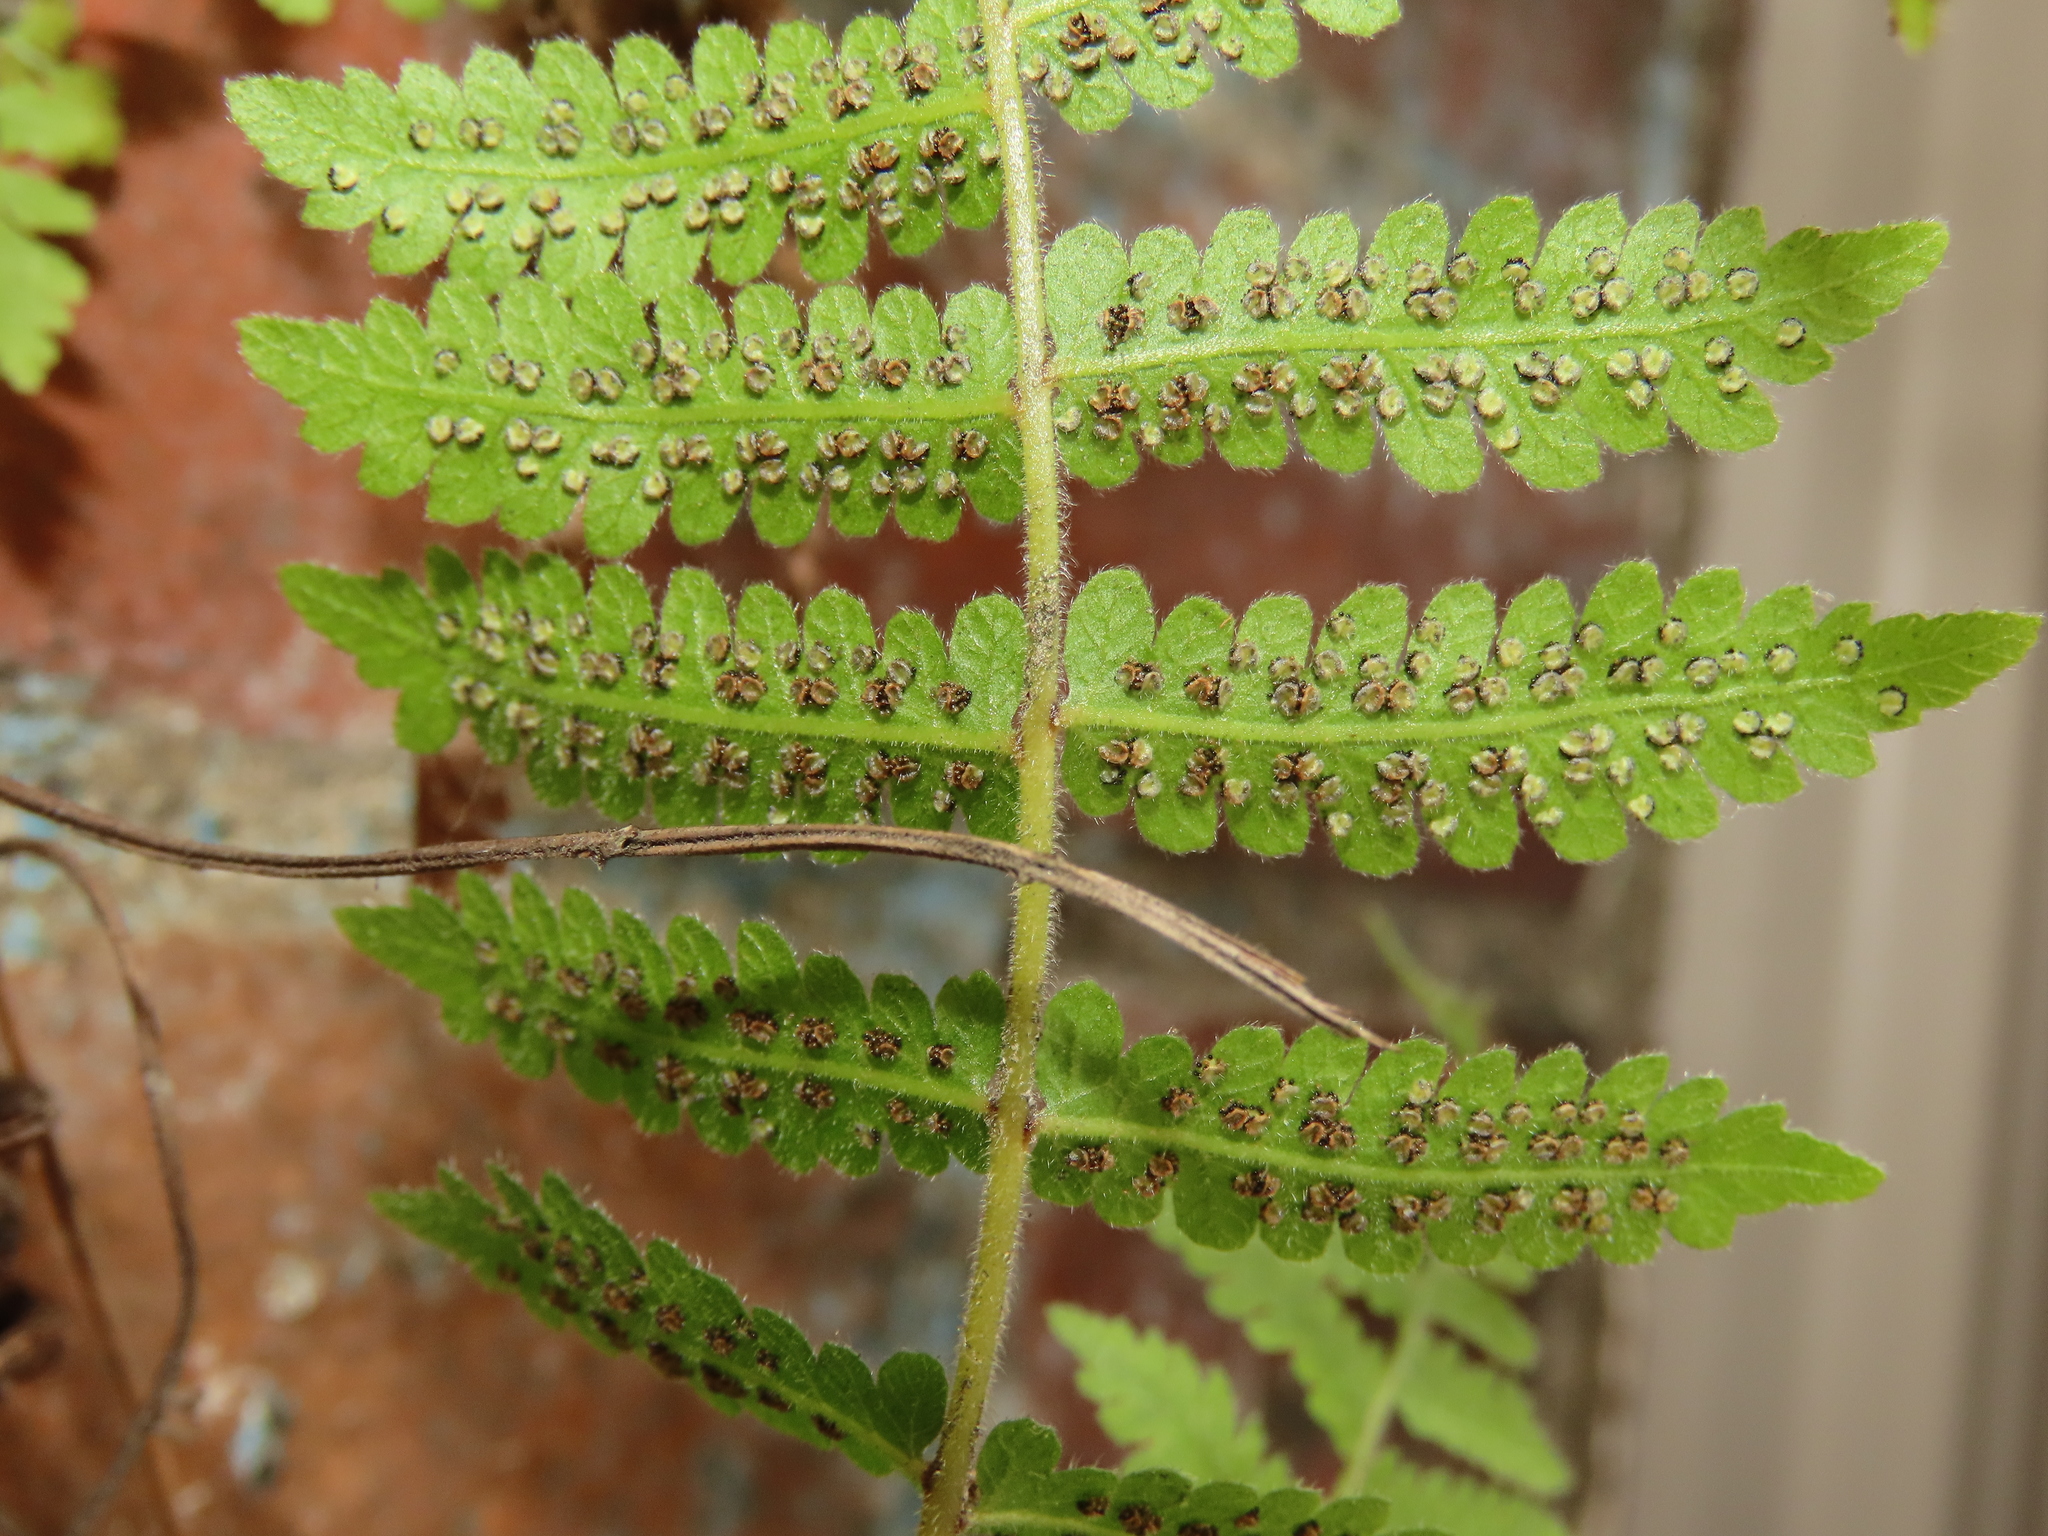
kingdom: Plantae
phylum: Tracheophyta
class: Polypodiopsida
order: Polypodiales
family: Thelypteridaceae
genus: Christella
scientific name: Christella parasitica
